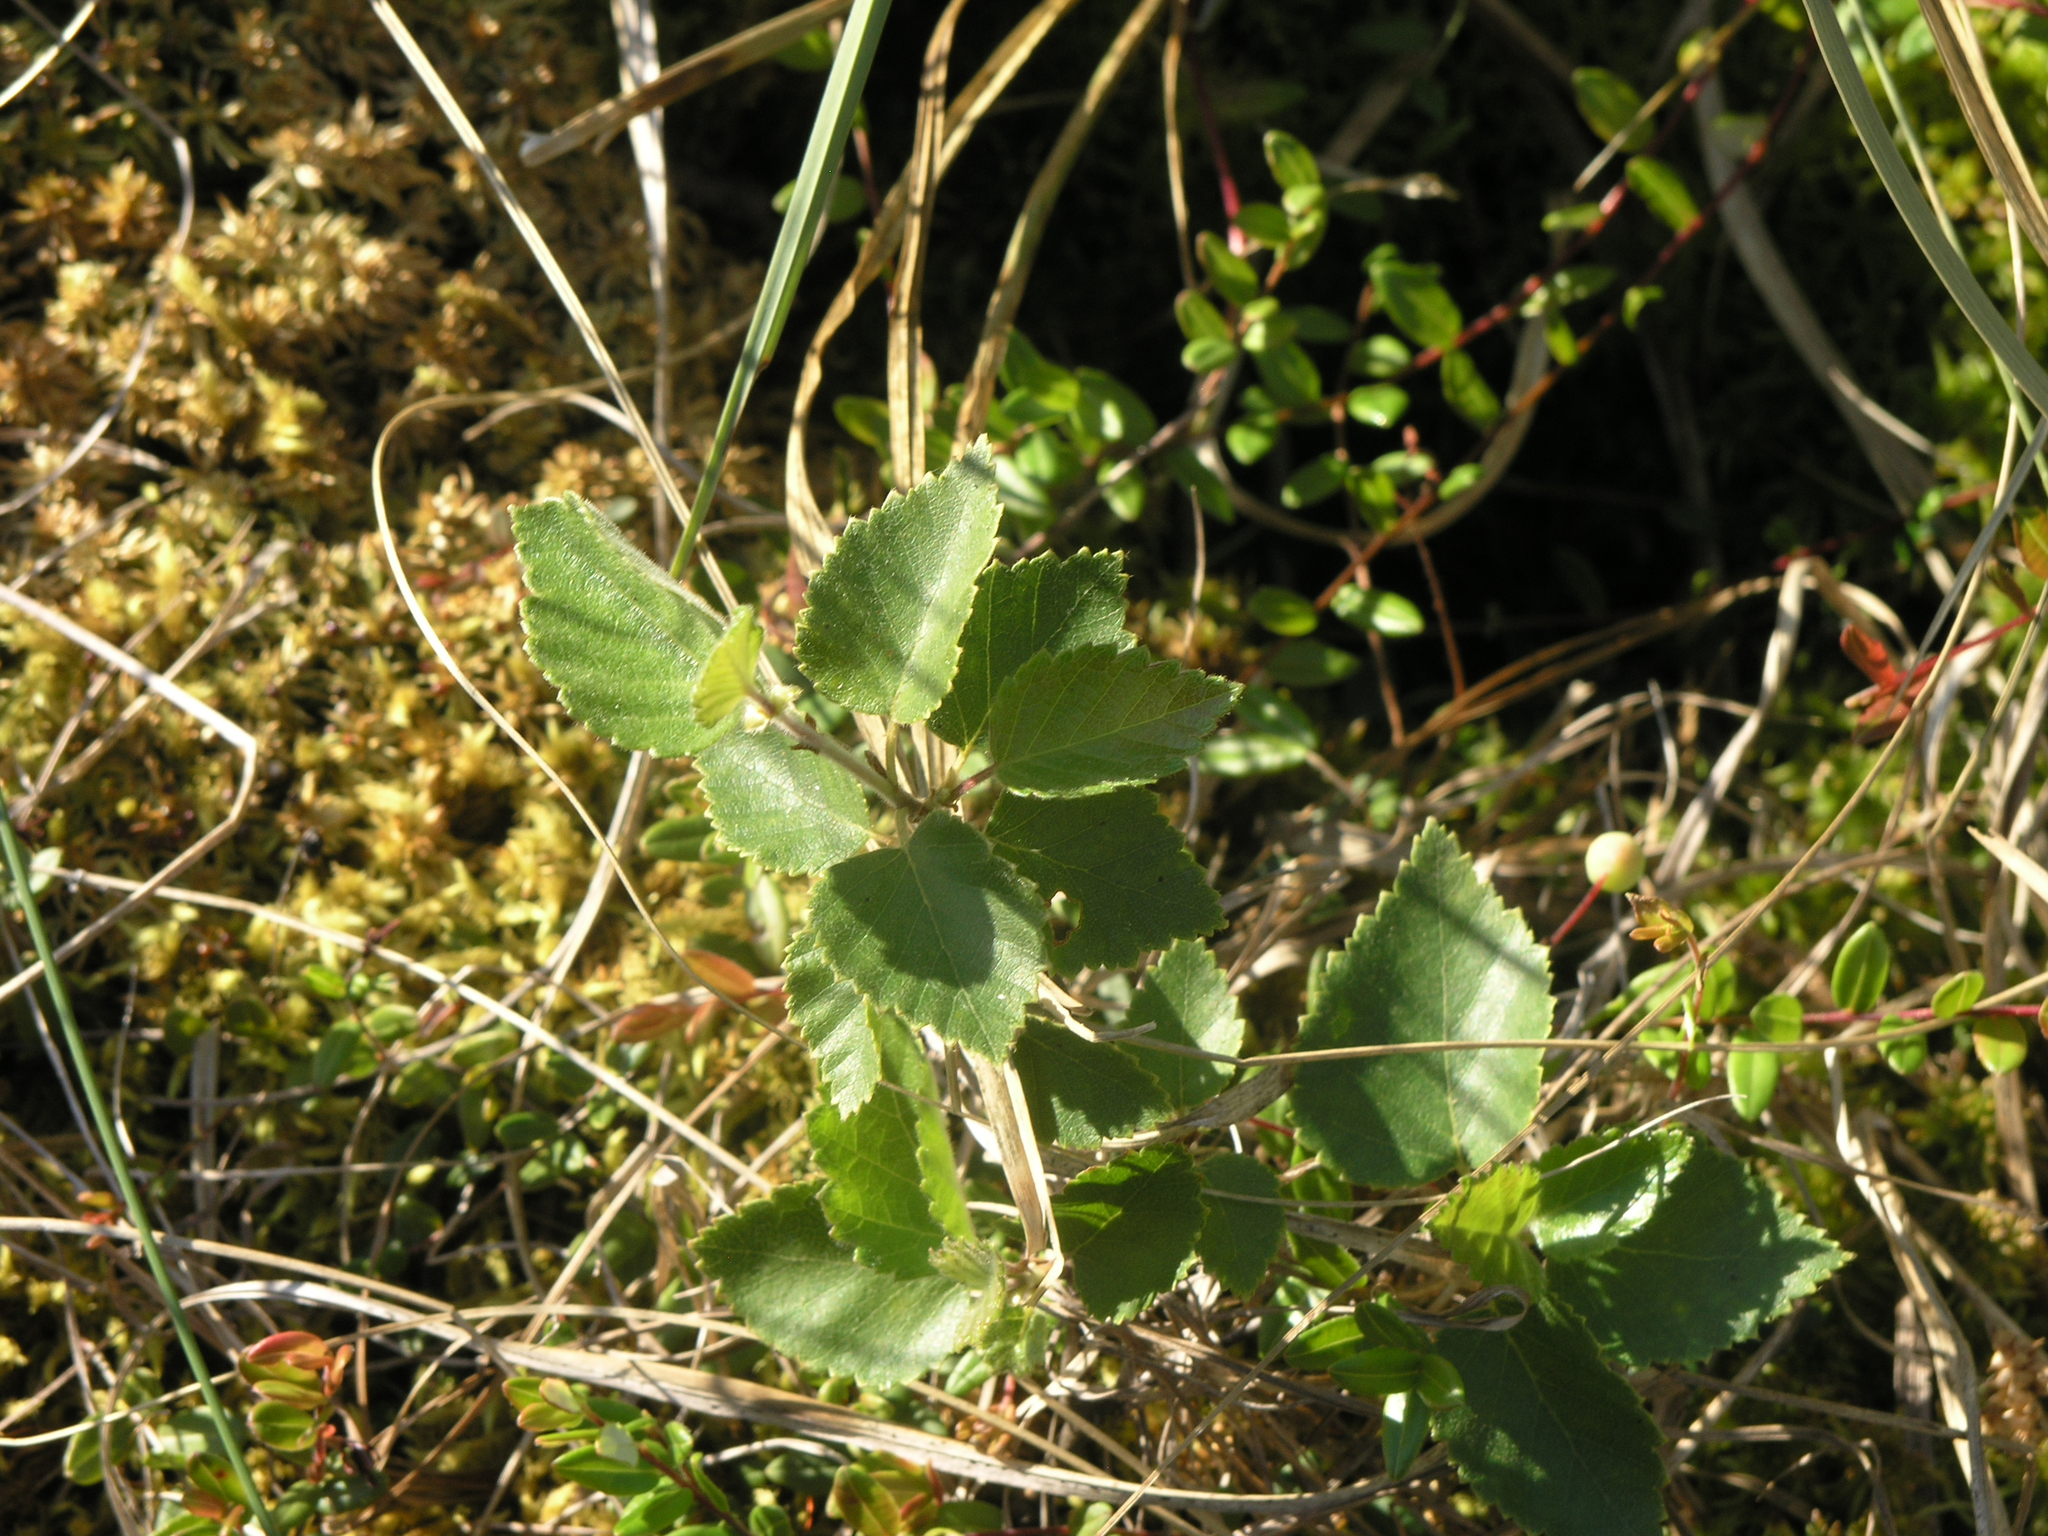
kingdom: Plantae
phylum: Tracheophyta
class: Magnoliopsida
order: Fagales
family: Betulaceae
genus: Betula
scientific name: Betula pubescens
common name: Downy birch
